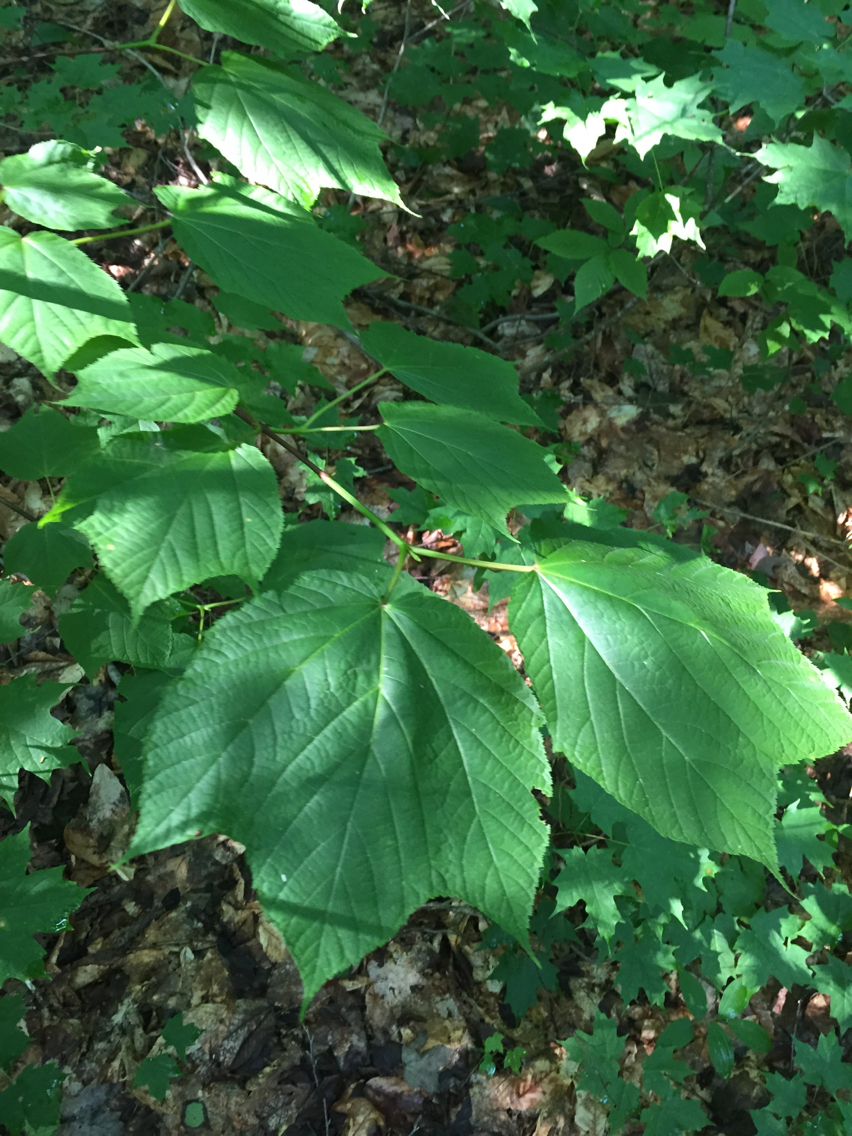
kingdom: Plantae
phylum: Tracheophyta
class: Magnoliopsida
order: Sapindales
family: Sapindaceae
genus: Acer
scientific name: Acer pensylvanicum
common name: Moosewood
